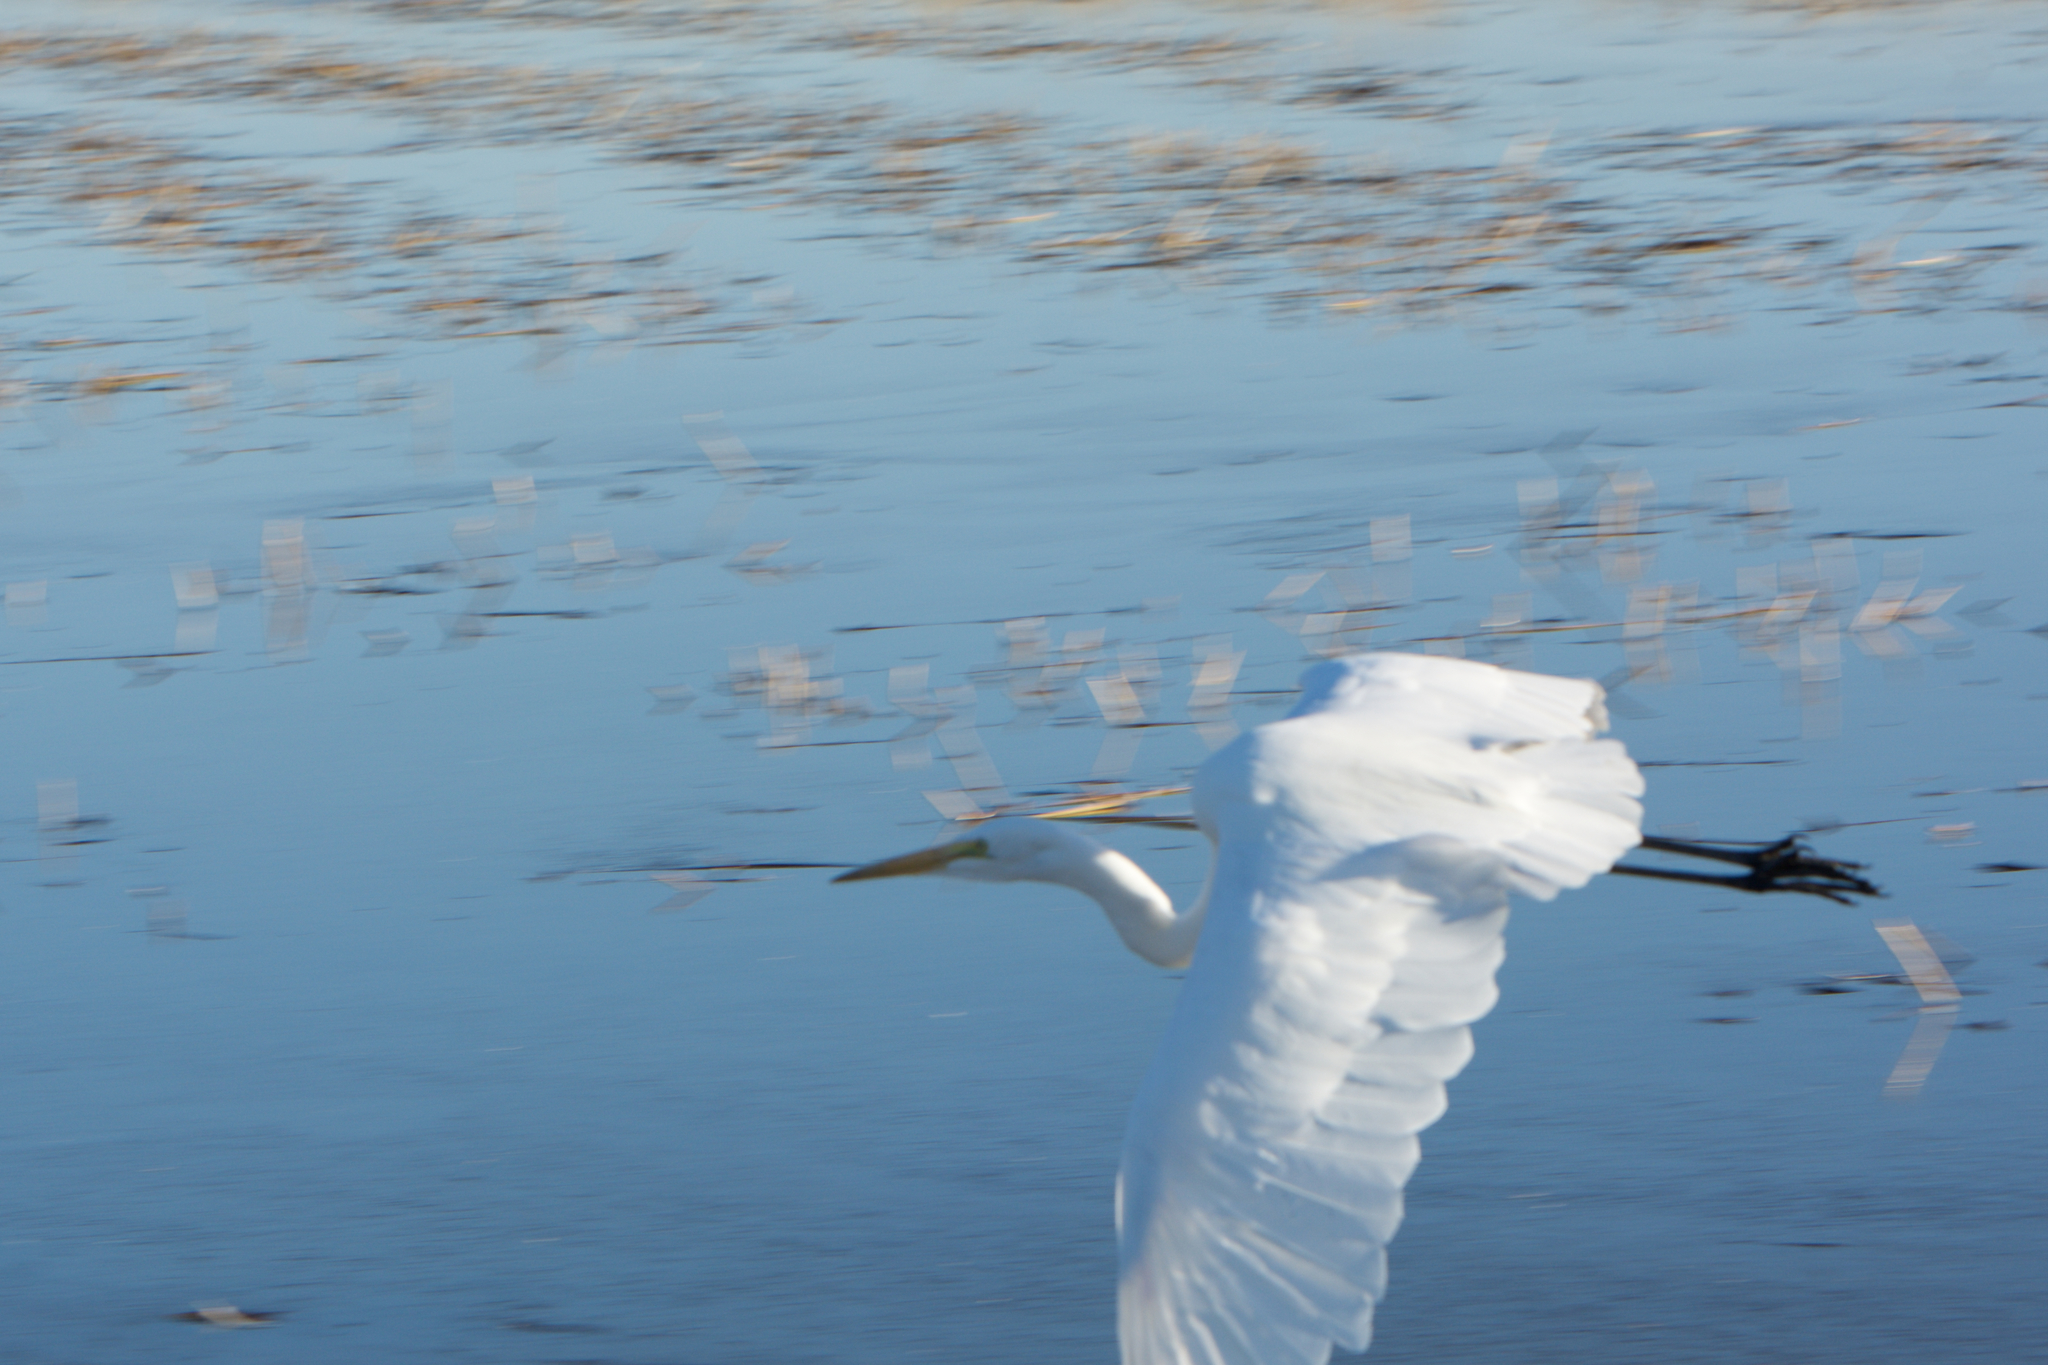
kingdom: Animalia
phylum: Chordata
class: Aves
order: Pelecaniformes
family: Ardeidae
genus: Ardea
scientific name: Ardea alba
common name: Great egret
